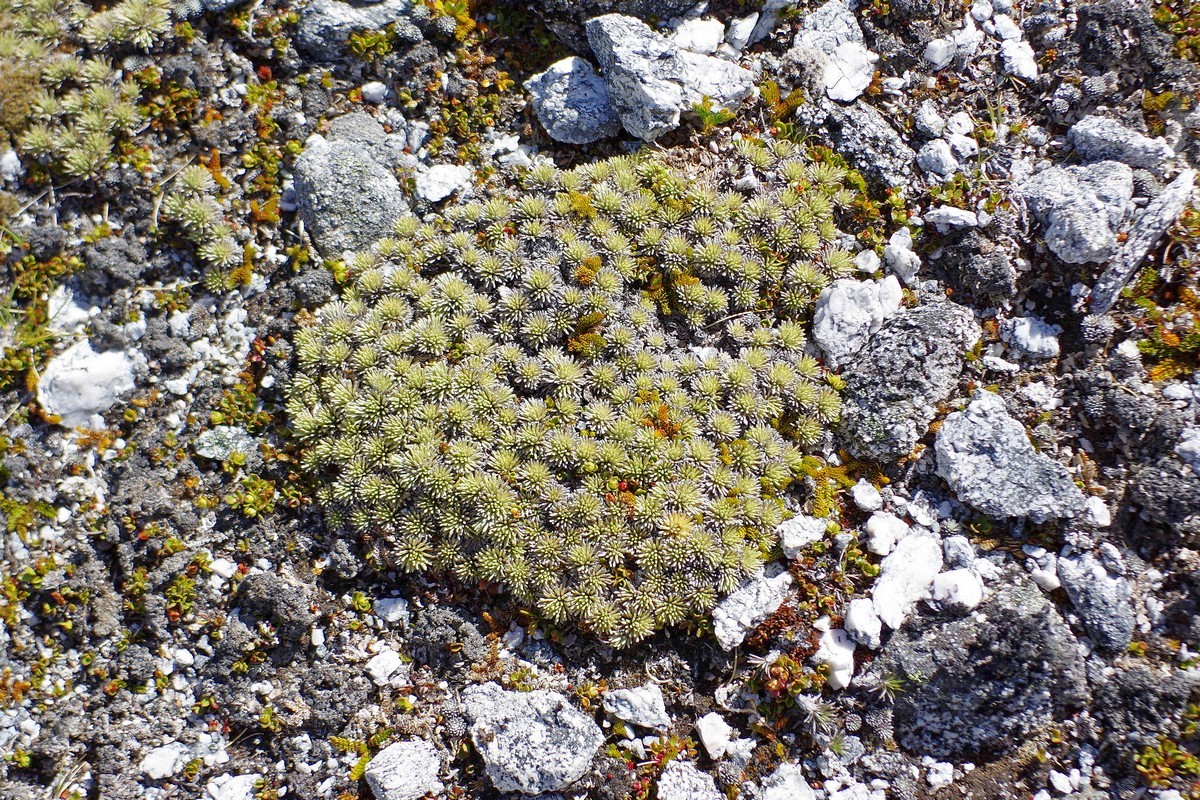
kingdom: Plantae
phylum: Tracheophyta
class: Magnoliopsida
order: Asterales
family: Asteraceae
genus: Celmisia
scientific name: Celmisia sessiliflora
